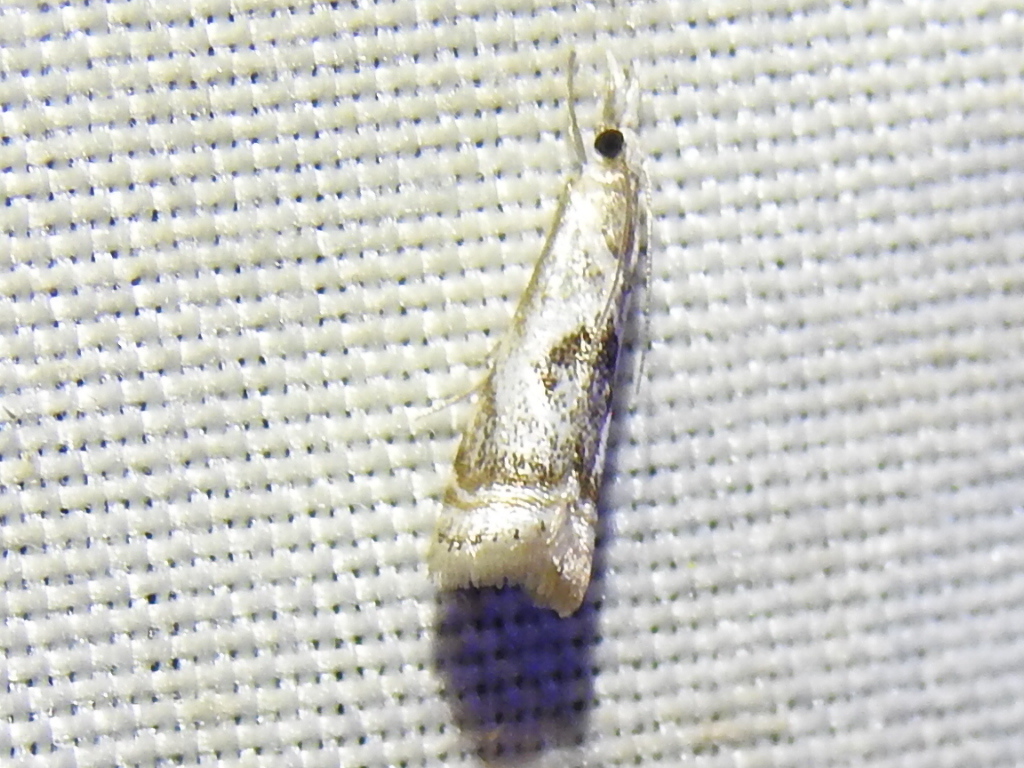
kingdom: Animalia
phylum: Arthropoda
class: Insecta
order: Lepidoptera
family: Crambidae
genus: Microcrambus
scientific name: Microcrambus elegans
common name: Elegant grass-veneer
